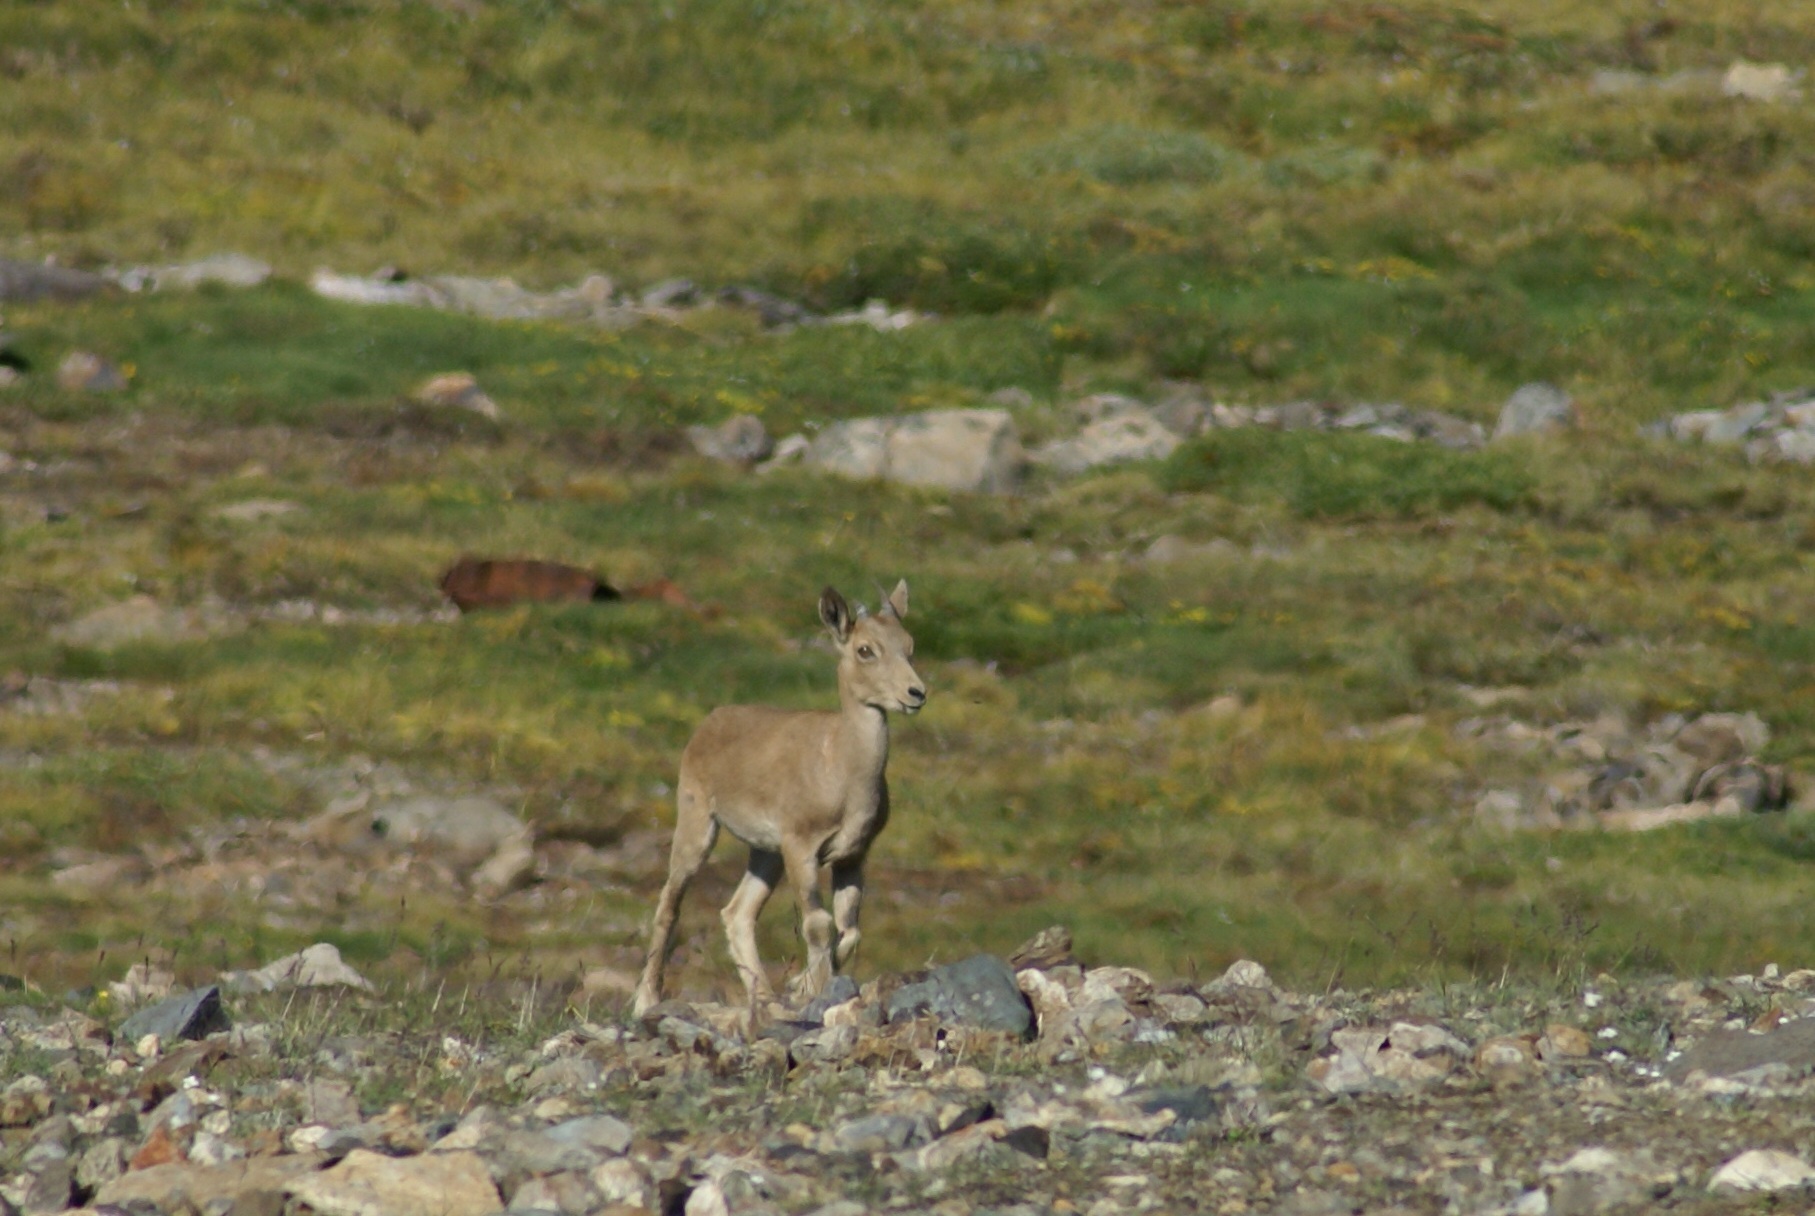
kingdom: Animalia
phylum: Chordata
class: Mammalia
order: Artiodactyla
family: Bovidae
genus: Capra
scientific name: Capra sibirica
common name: Siberian ibex
